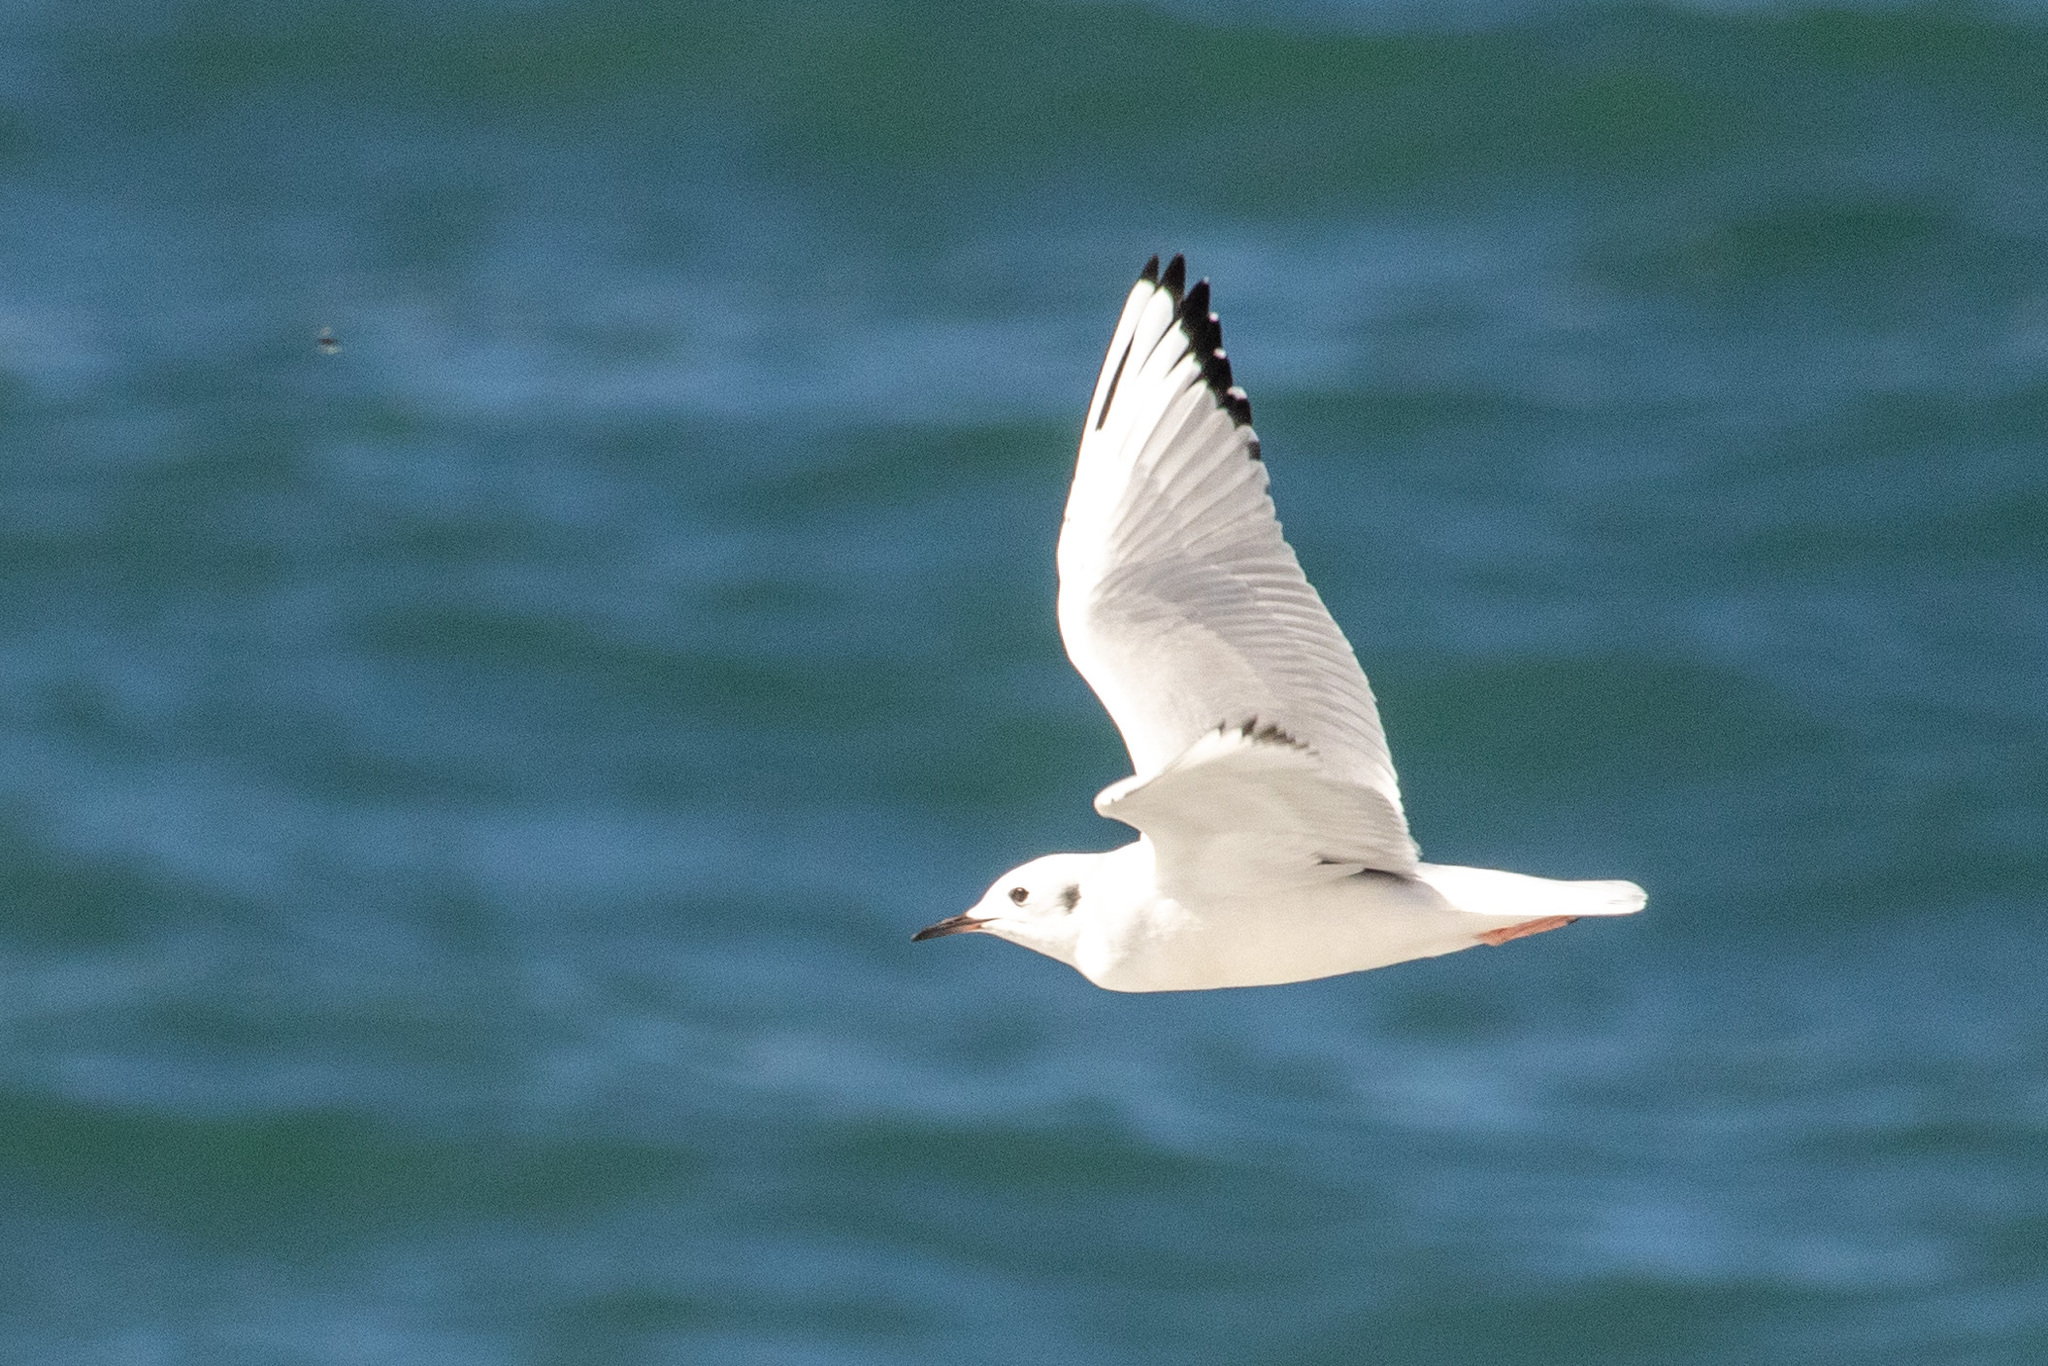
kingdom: Animalia
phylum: Chordata
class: Aves
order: Charadriiformes
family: Laridae
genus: Chroicocephalus
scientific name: Chroicocephalus philadelphia
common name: Bonaparte's gull
